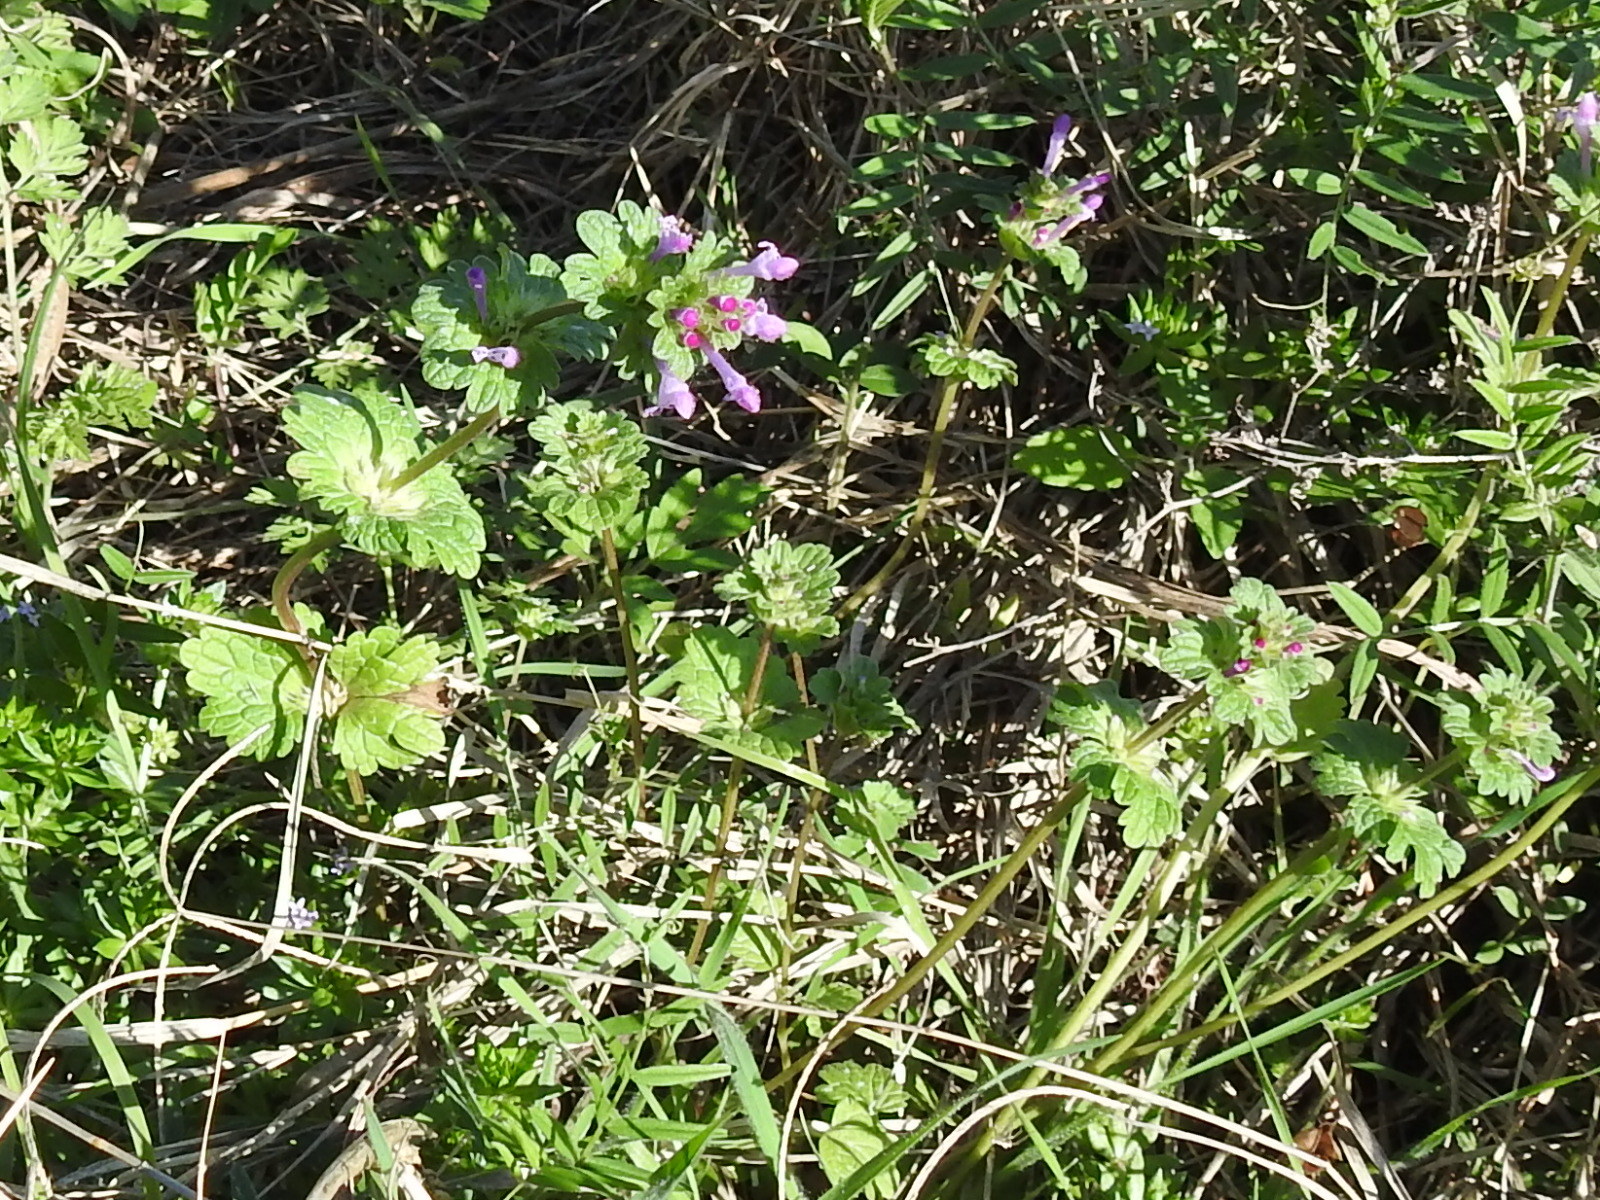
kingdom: Plantae
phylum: Tracheophyta
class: Magnoliopsida
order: Lamiales
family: Lamiaceae
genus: Lamium
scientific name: Lamium amplexicaule
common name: Henbit dead-nettle
